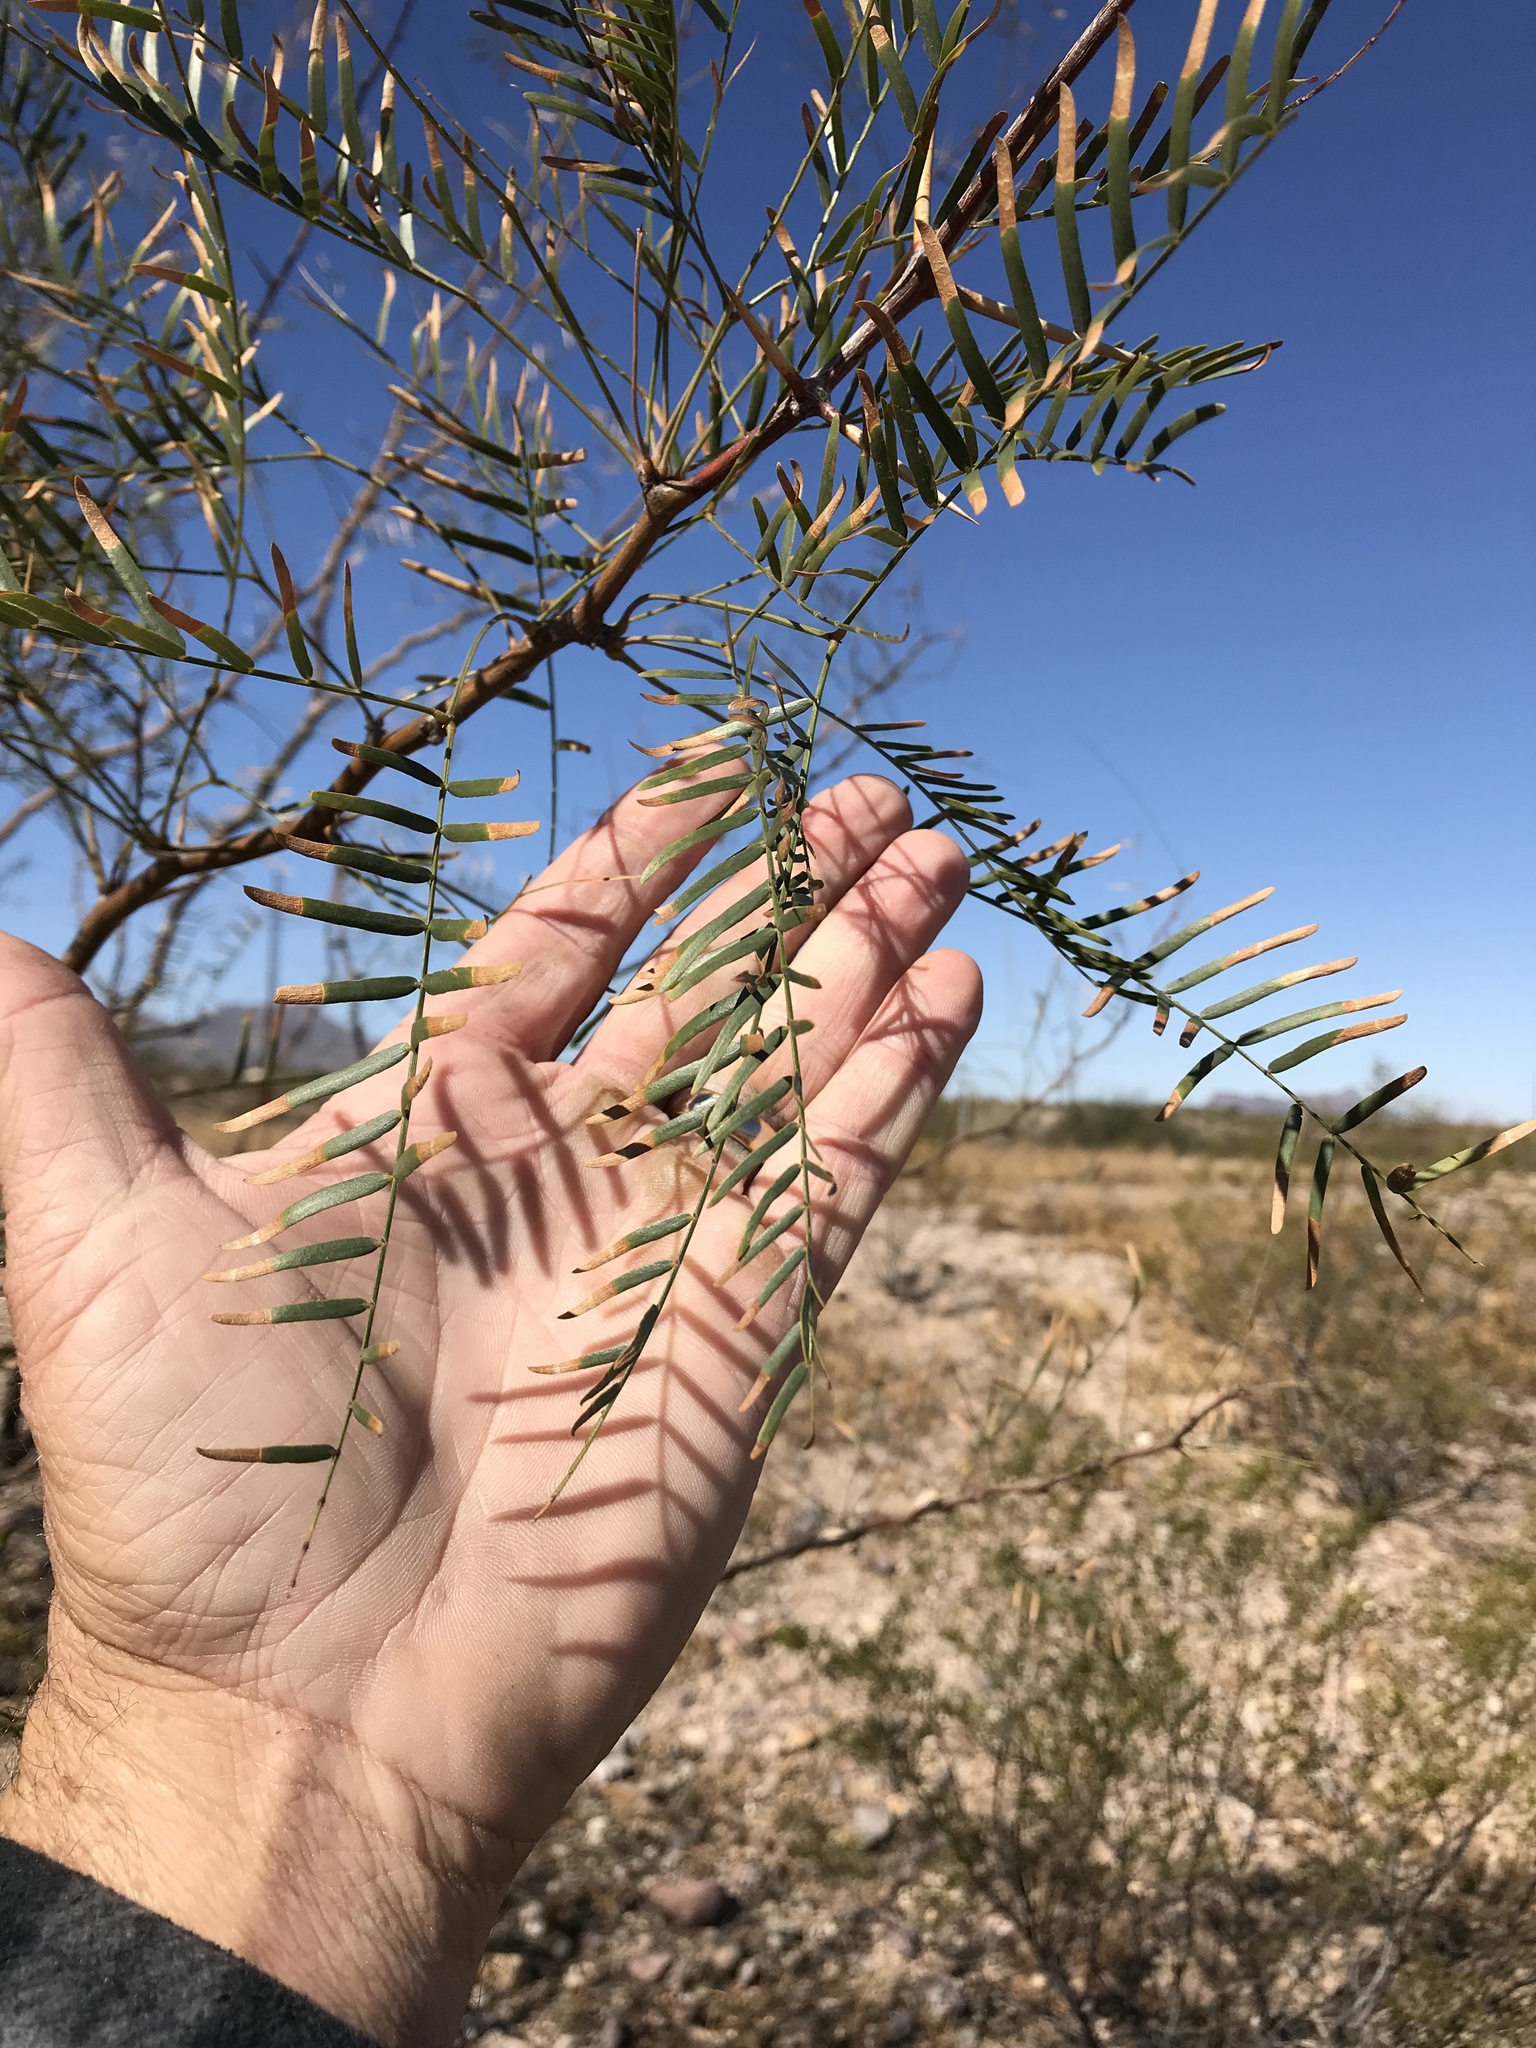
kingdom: Plantae
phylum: Tracheophyta
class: Magnoliopsida
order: Fabales
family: Fabaceae
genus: Prosopis
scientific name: Prosopis glandulosa
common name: Honey mesquite
